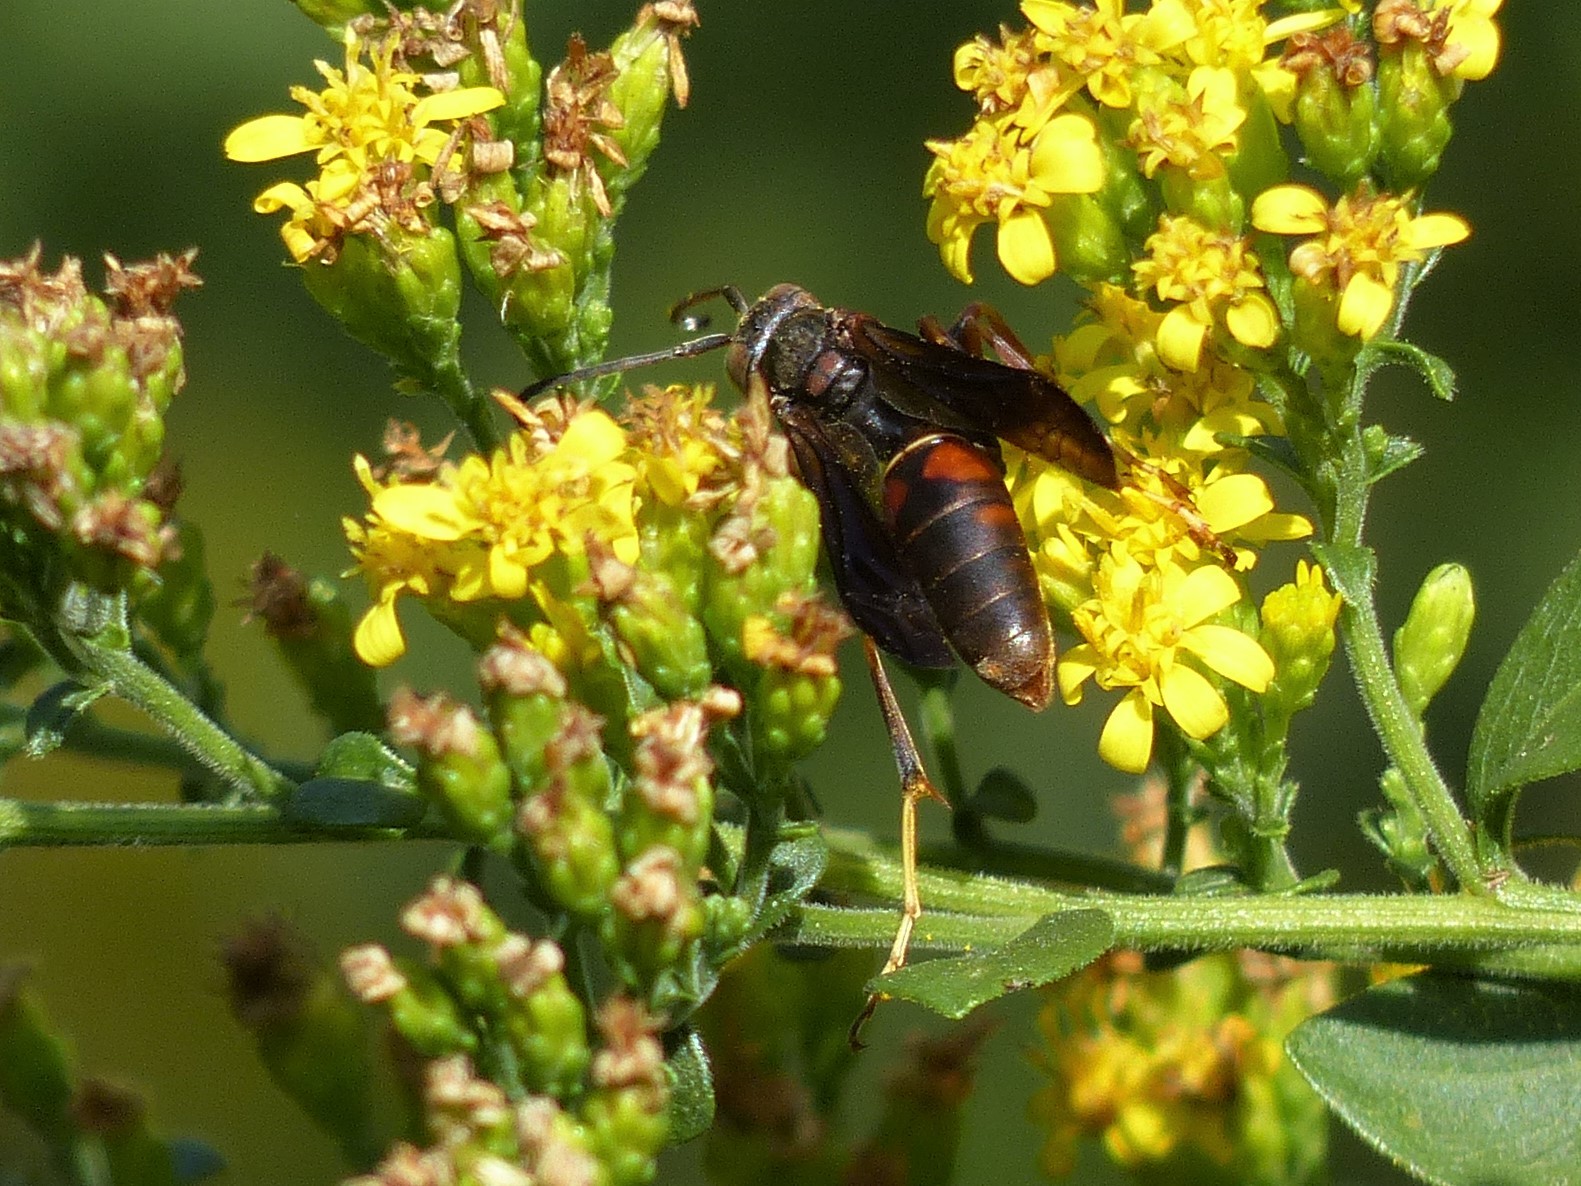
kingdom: Animalia
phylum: Arthropoda
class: Insecta
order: Hymenoptera
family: Eumenidae
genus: Polistes
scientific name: Polistes fuscatus
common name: Dark paper wasp
